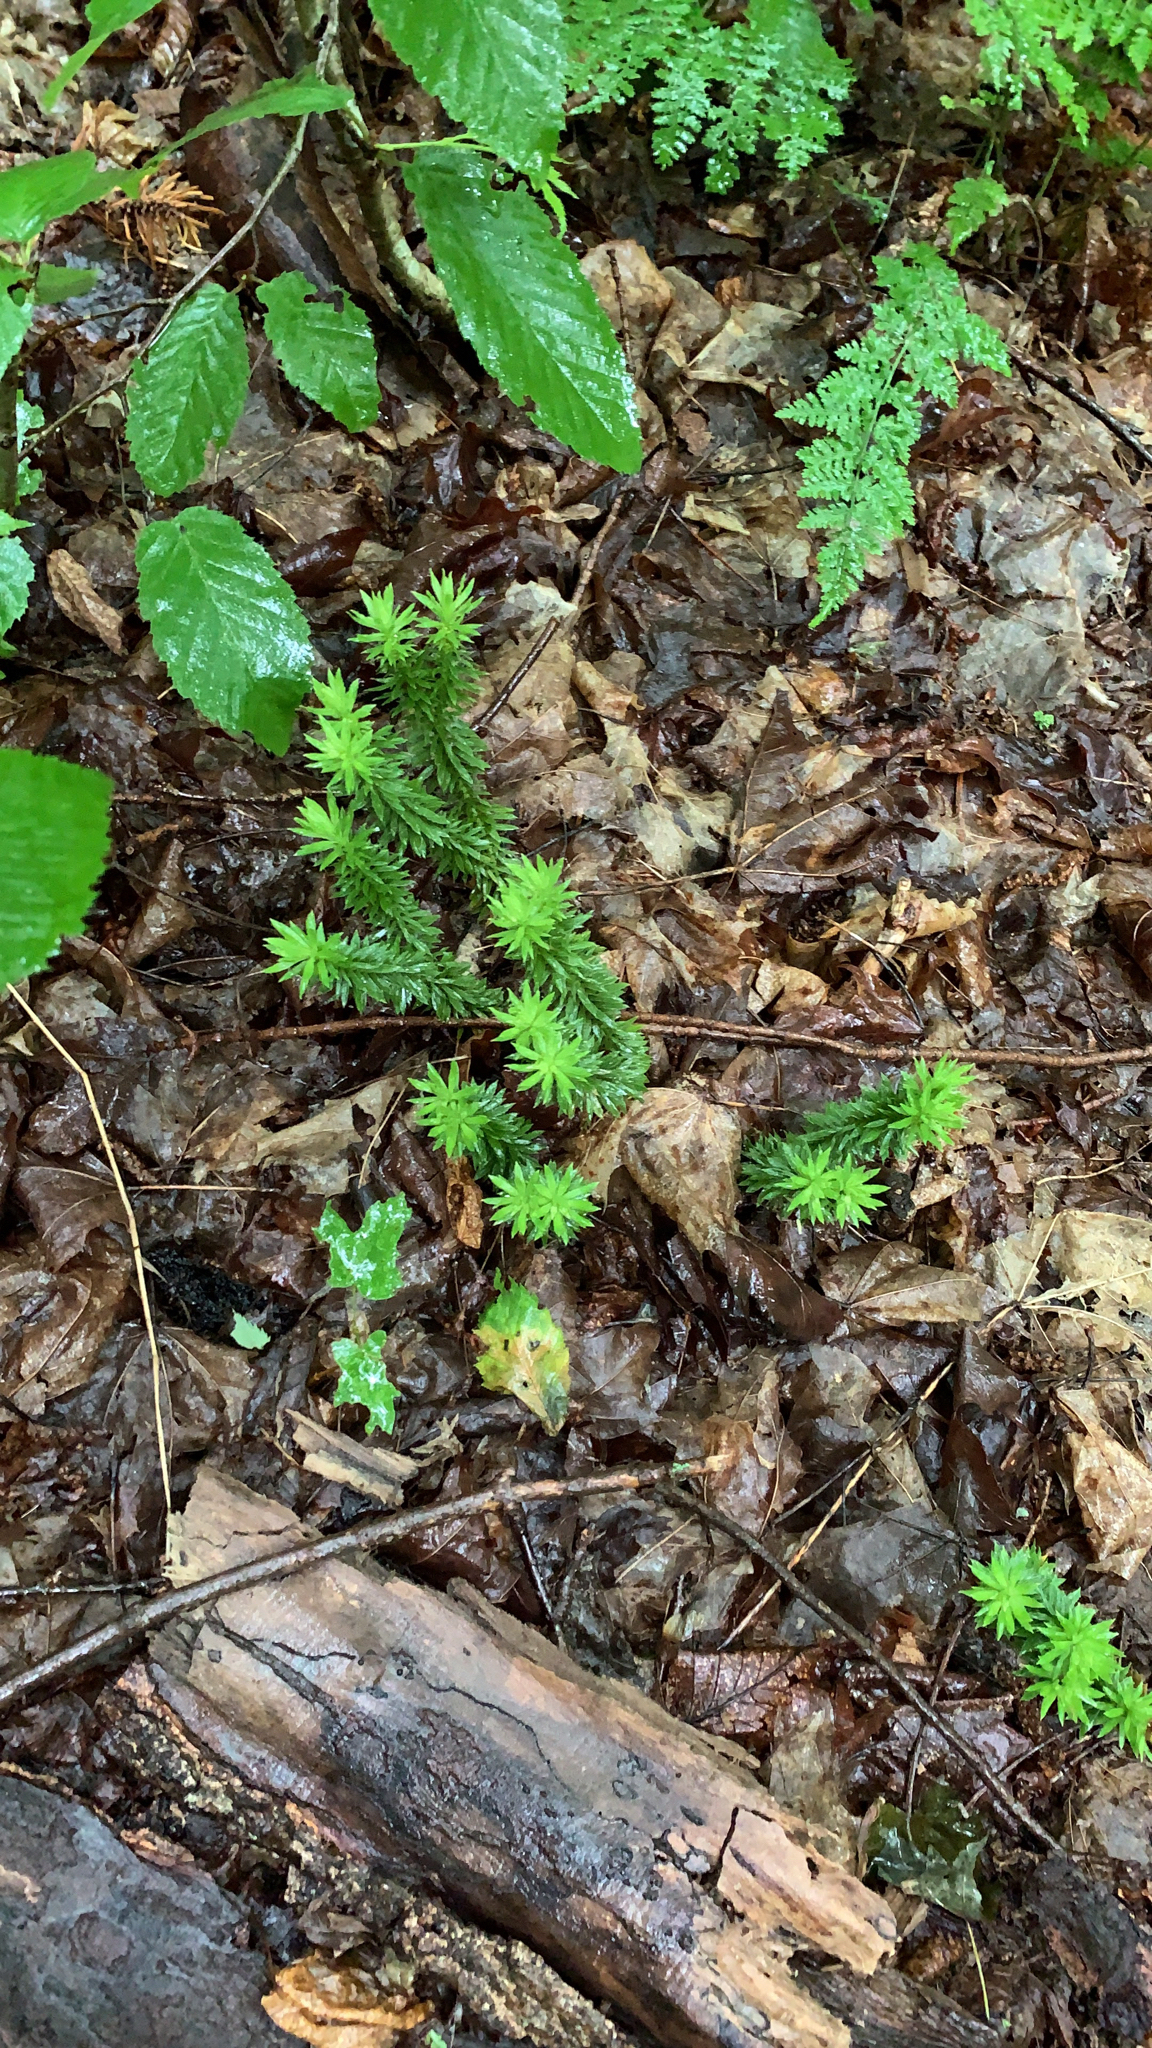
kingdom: Plantae
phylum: Tracheophyta
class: Lycopodiopsida
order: Lycopodiales
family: Lycopodiaceae
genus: Huperzia
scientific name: Huperzia lucidula
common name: Shining clubmoss
